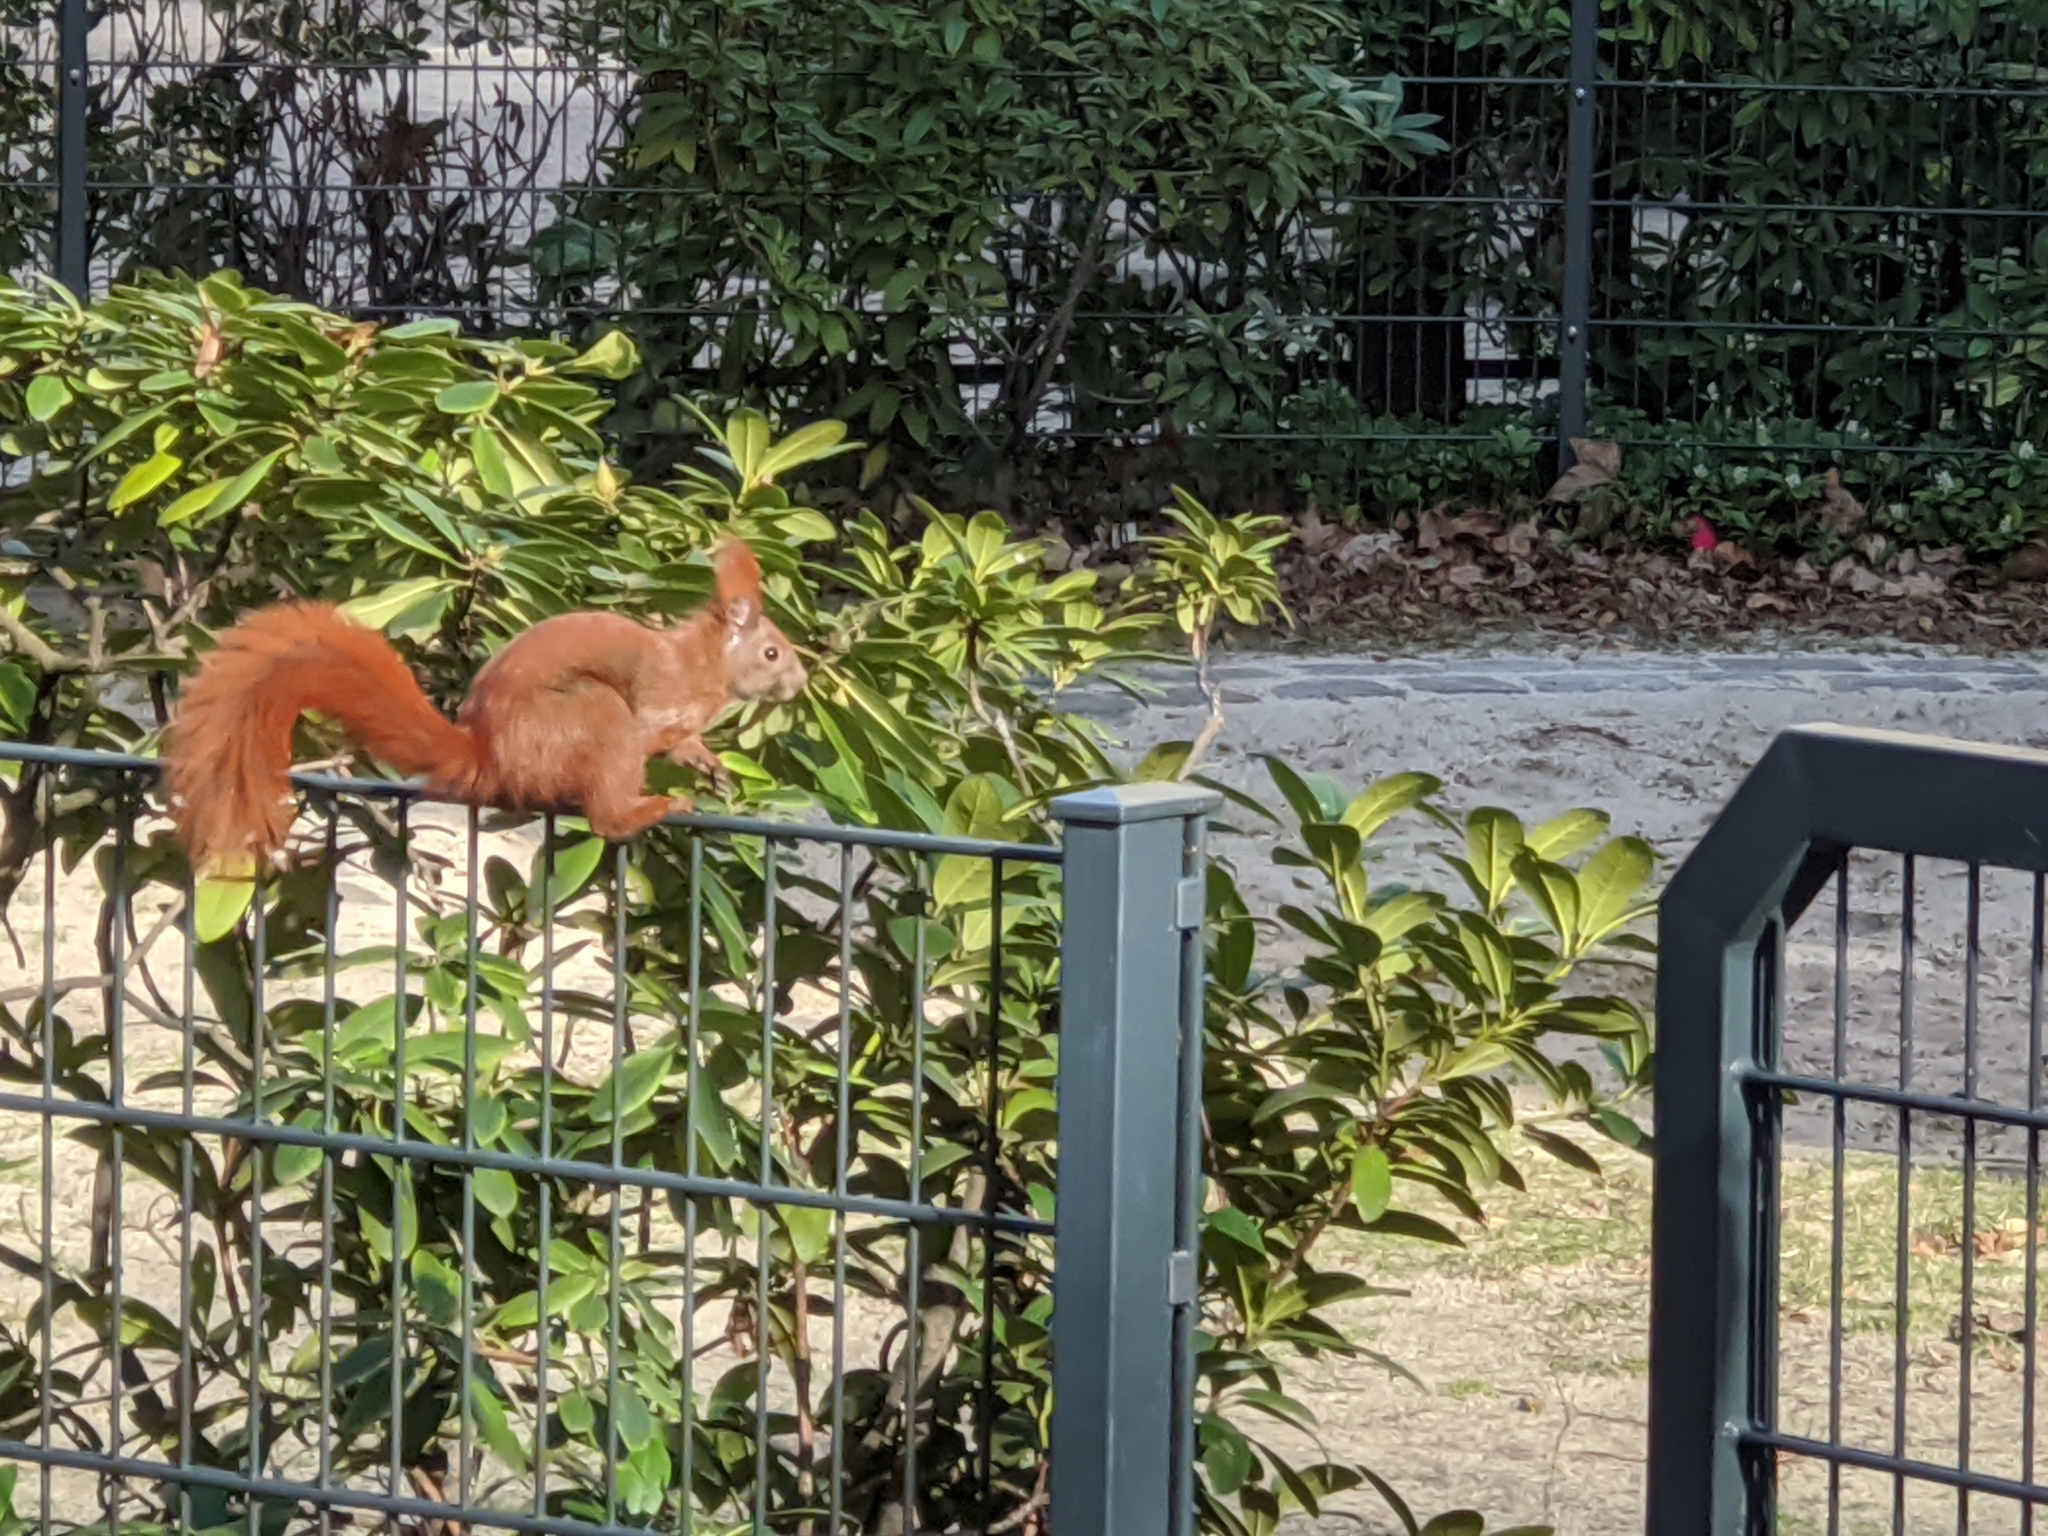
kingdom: Animalia
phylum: Chordata
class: Mammalia
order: Rodentia
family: Sciuridae
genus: Sciurus
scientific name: Sciurus vulgaris
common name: Eurasian red squirrel
